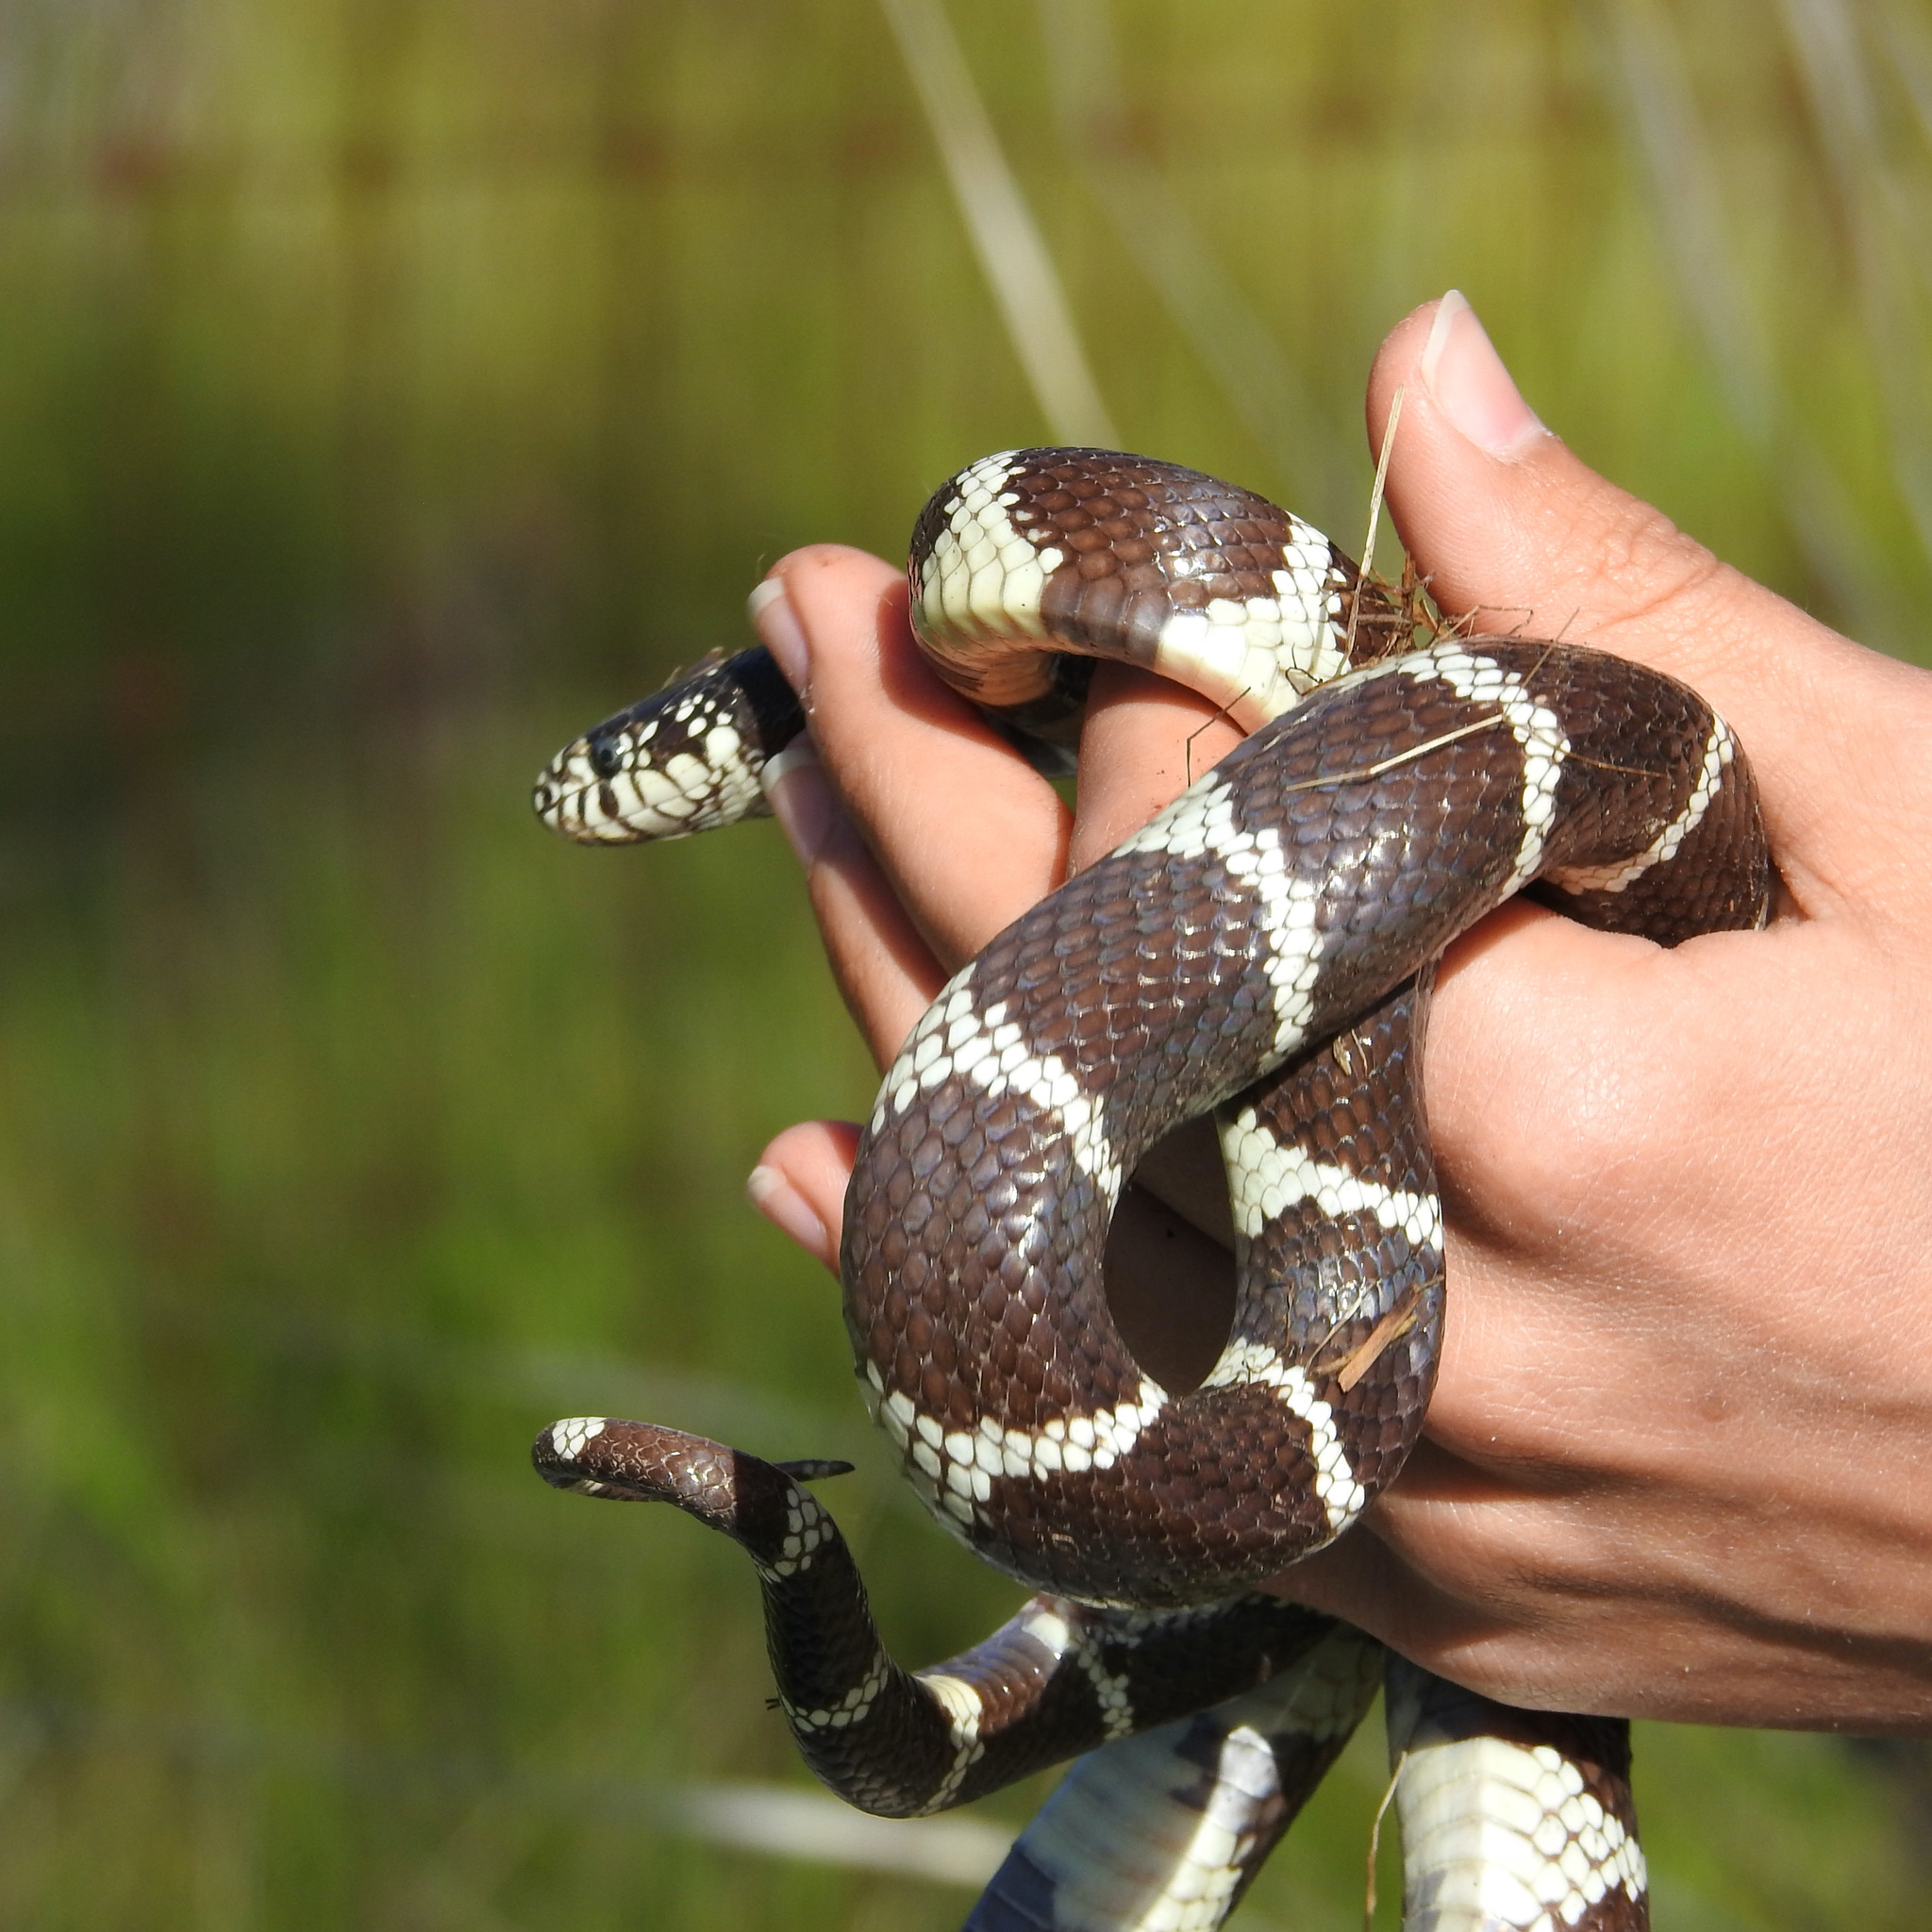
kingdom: Animalia
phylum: Chordata
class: Squamata
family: Colubridae
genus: Lampropeltis
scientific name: Lampropeltis californiae
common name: California kingsnake
